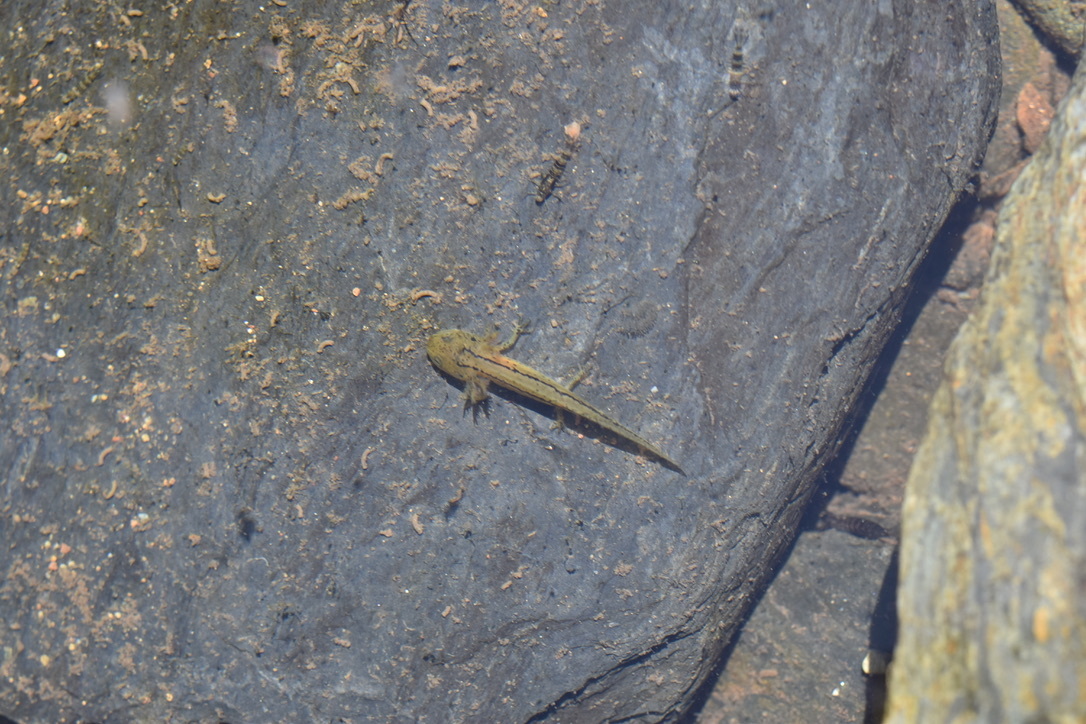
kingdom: Animalia
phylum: Chordata
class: Amphibia
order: Caudata
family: Salamandridae
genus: Taricha
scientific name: Taricha sierrae
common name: Sierra newt
